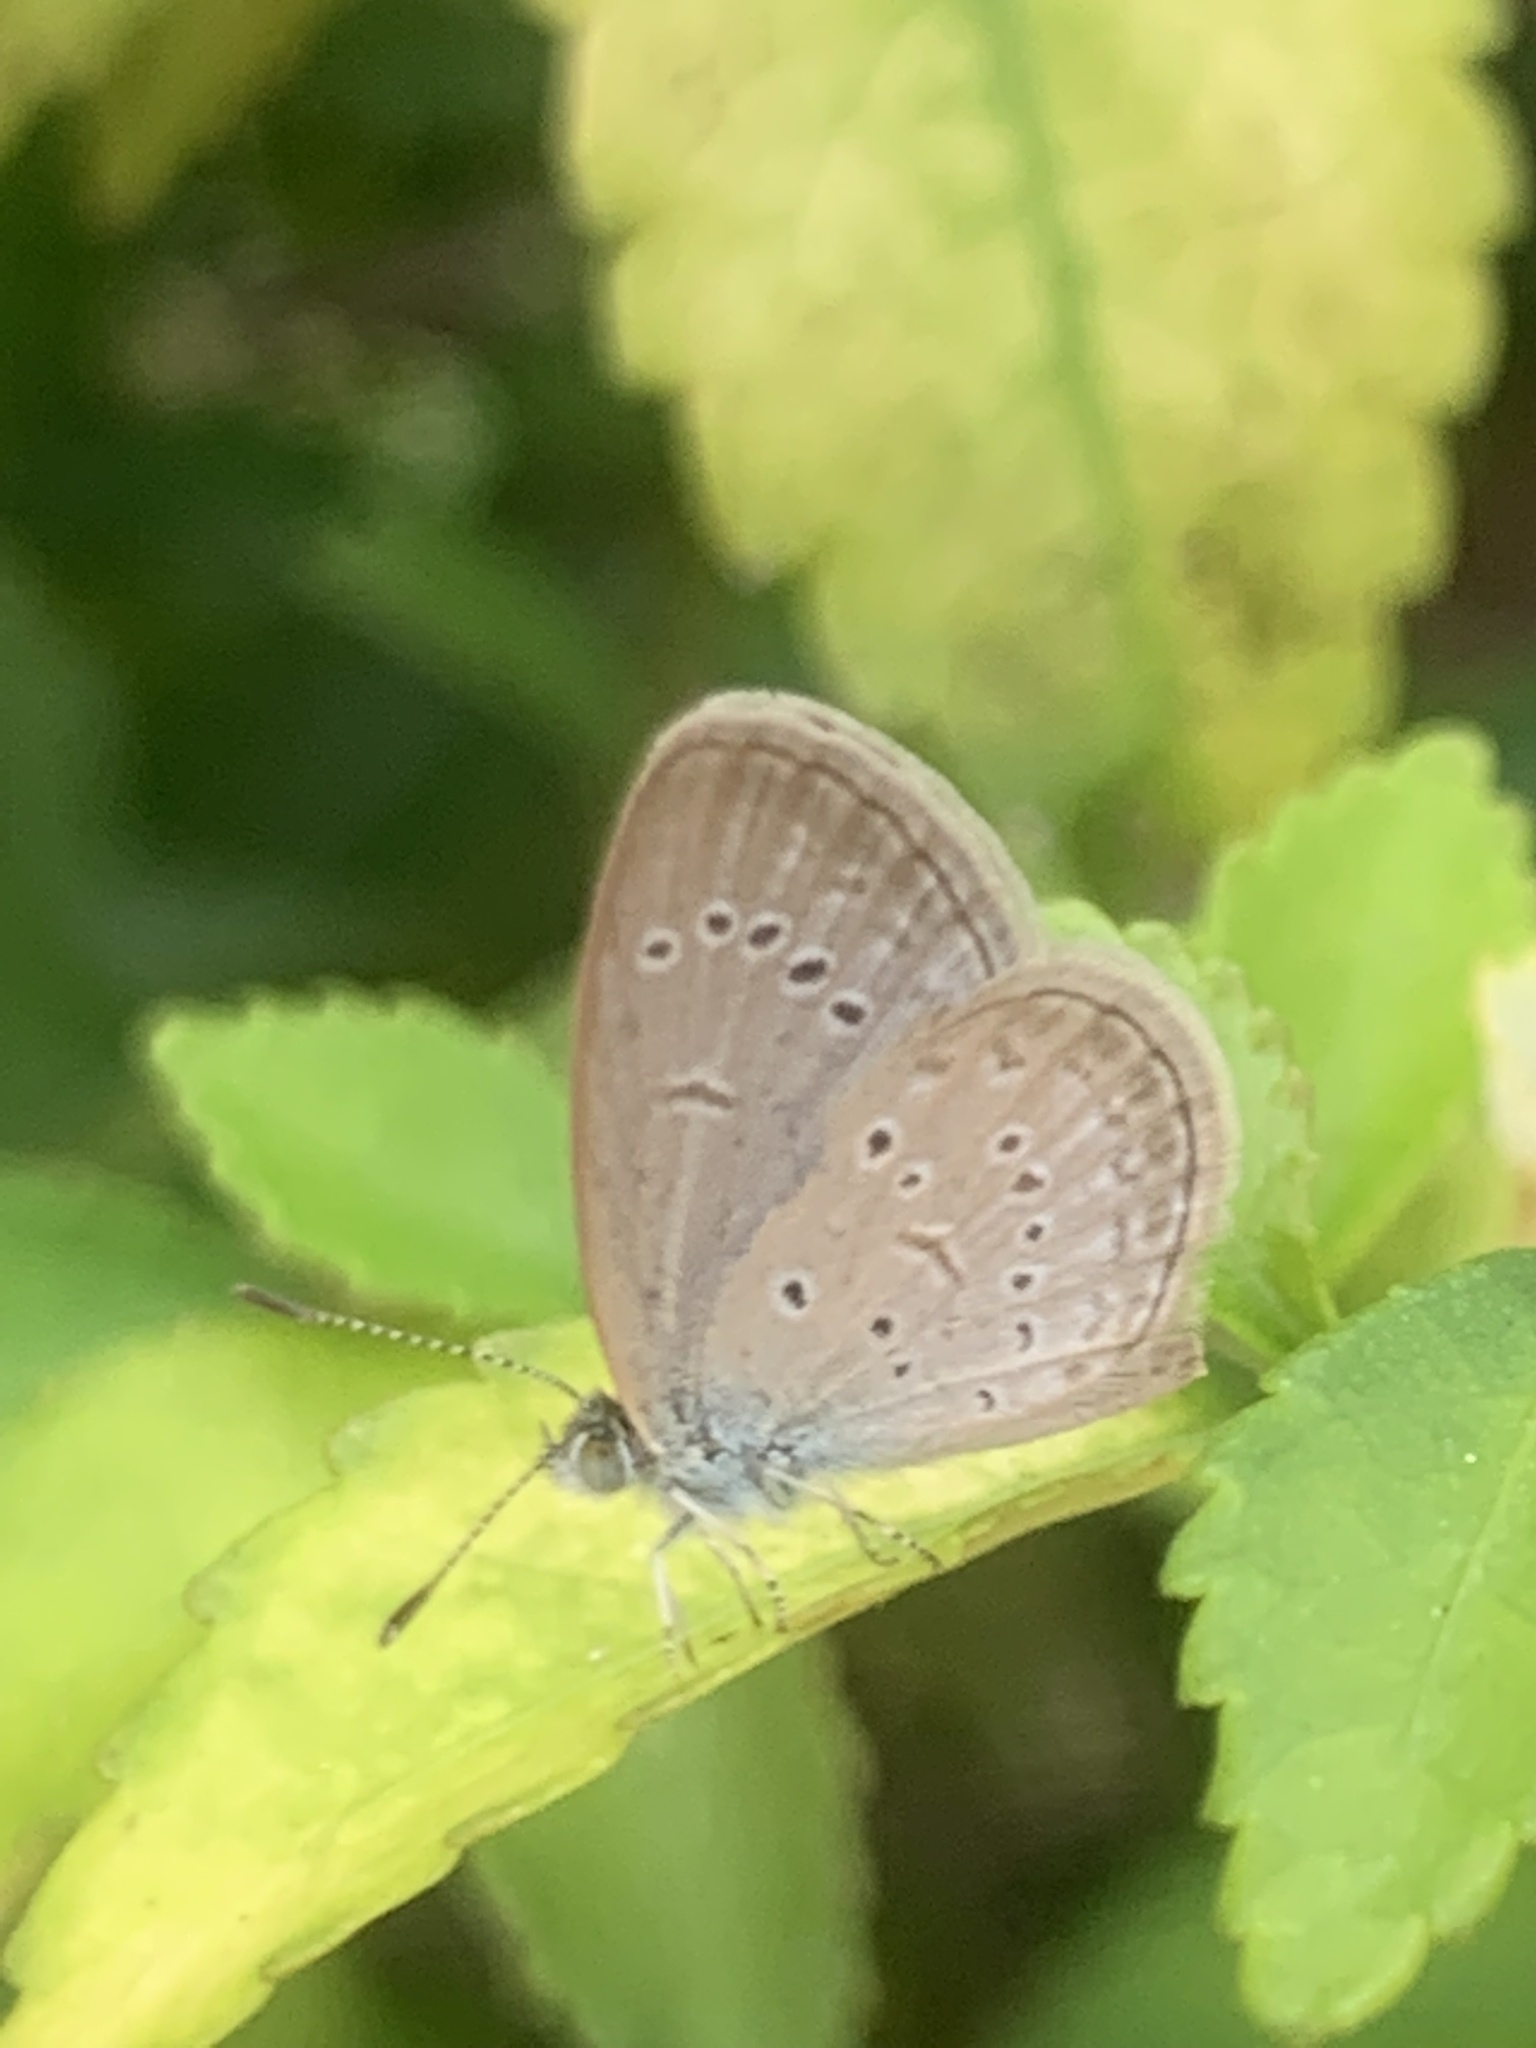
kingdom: Animalia
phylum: Arthropoda
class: Insecta
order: Lepidoptera
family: Lycaenidae
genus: Zizina
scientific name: Zizina otis
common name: Lesser grass blue
